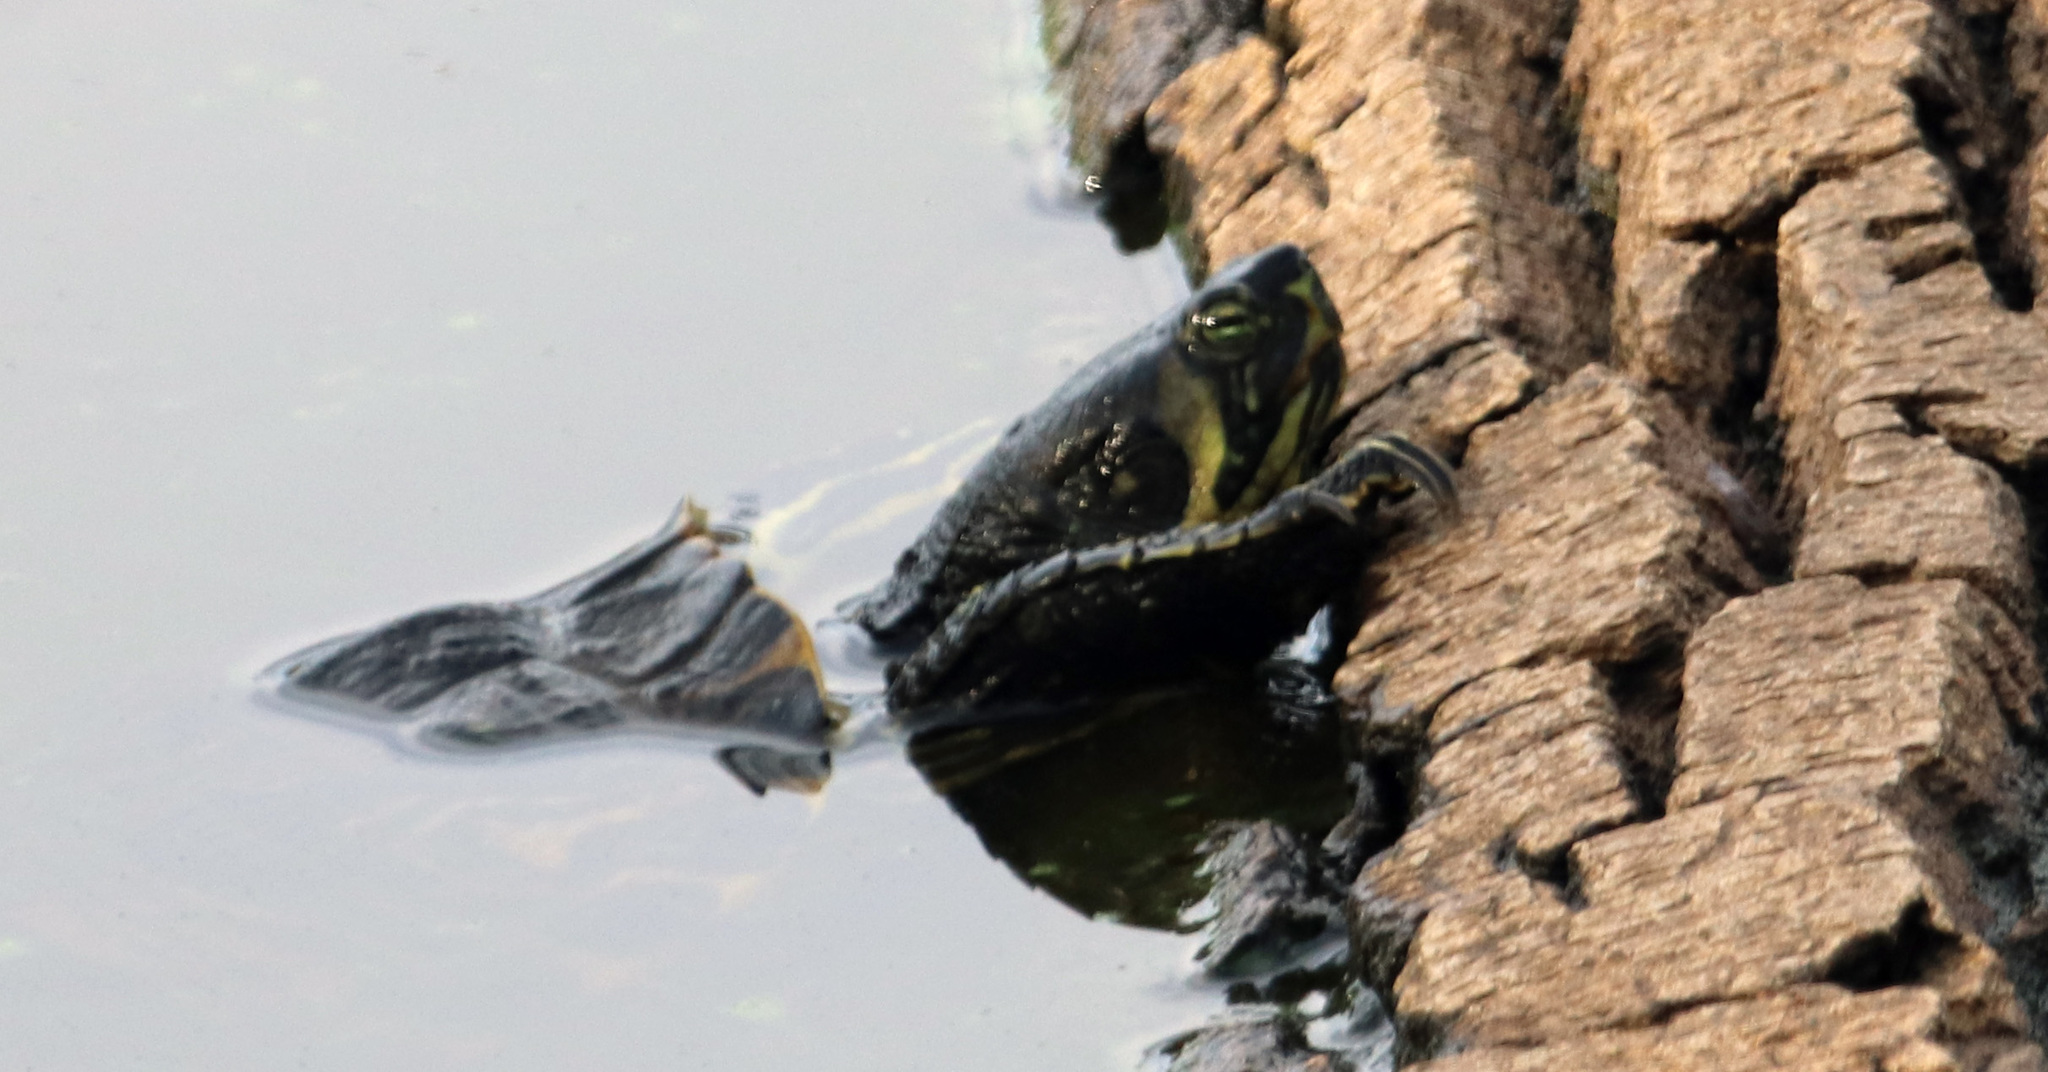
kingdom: Animalia
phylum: Chordata
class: Testudines
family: Emydidae
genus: Trachemys
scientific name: Trachemys scripta
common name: Slider
